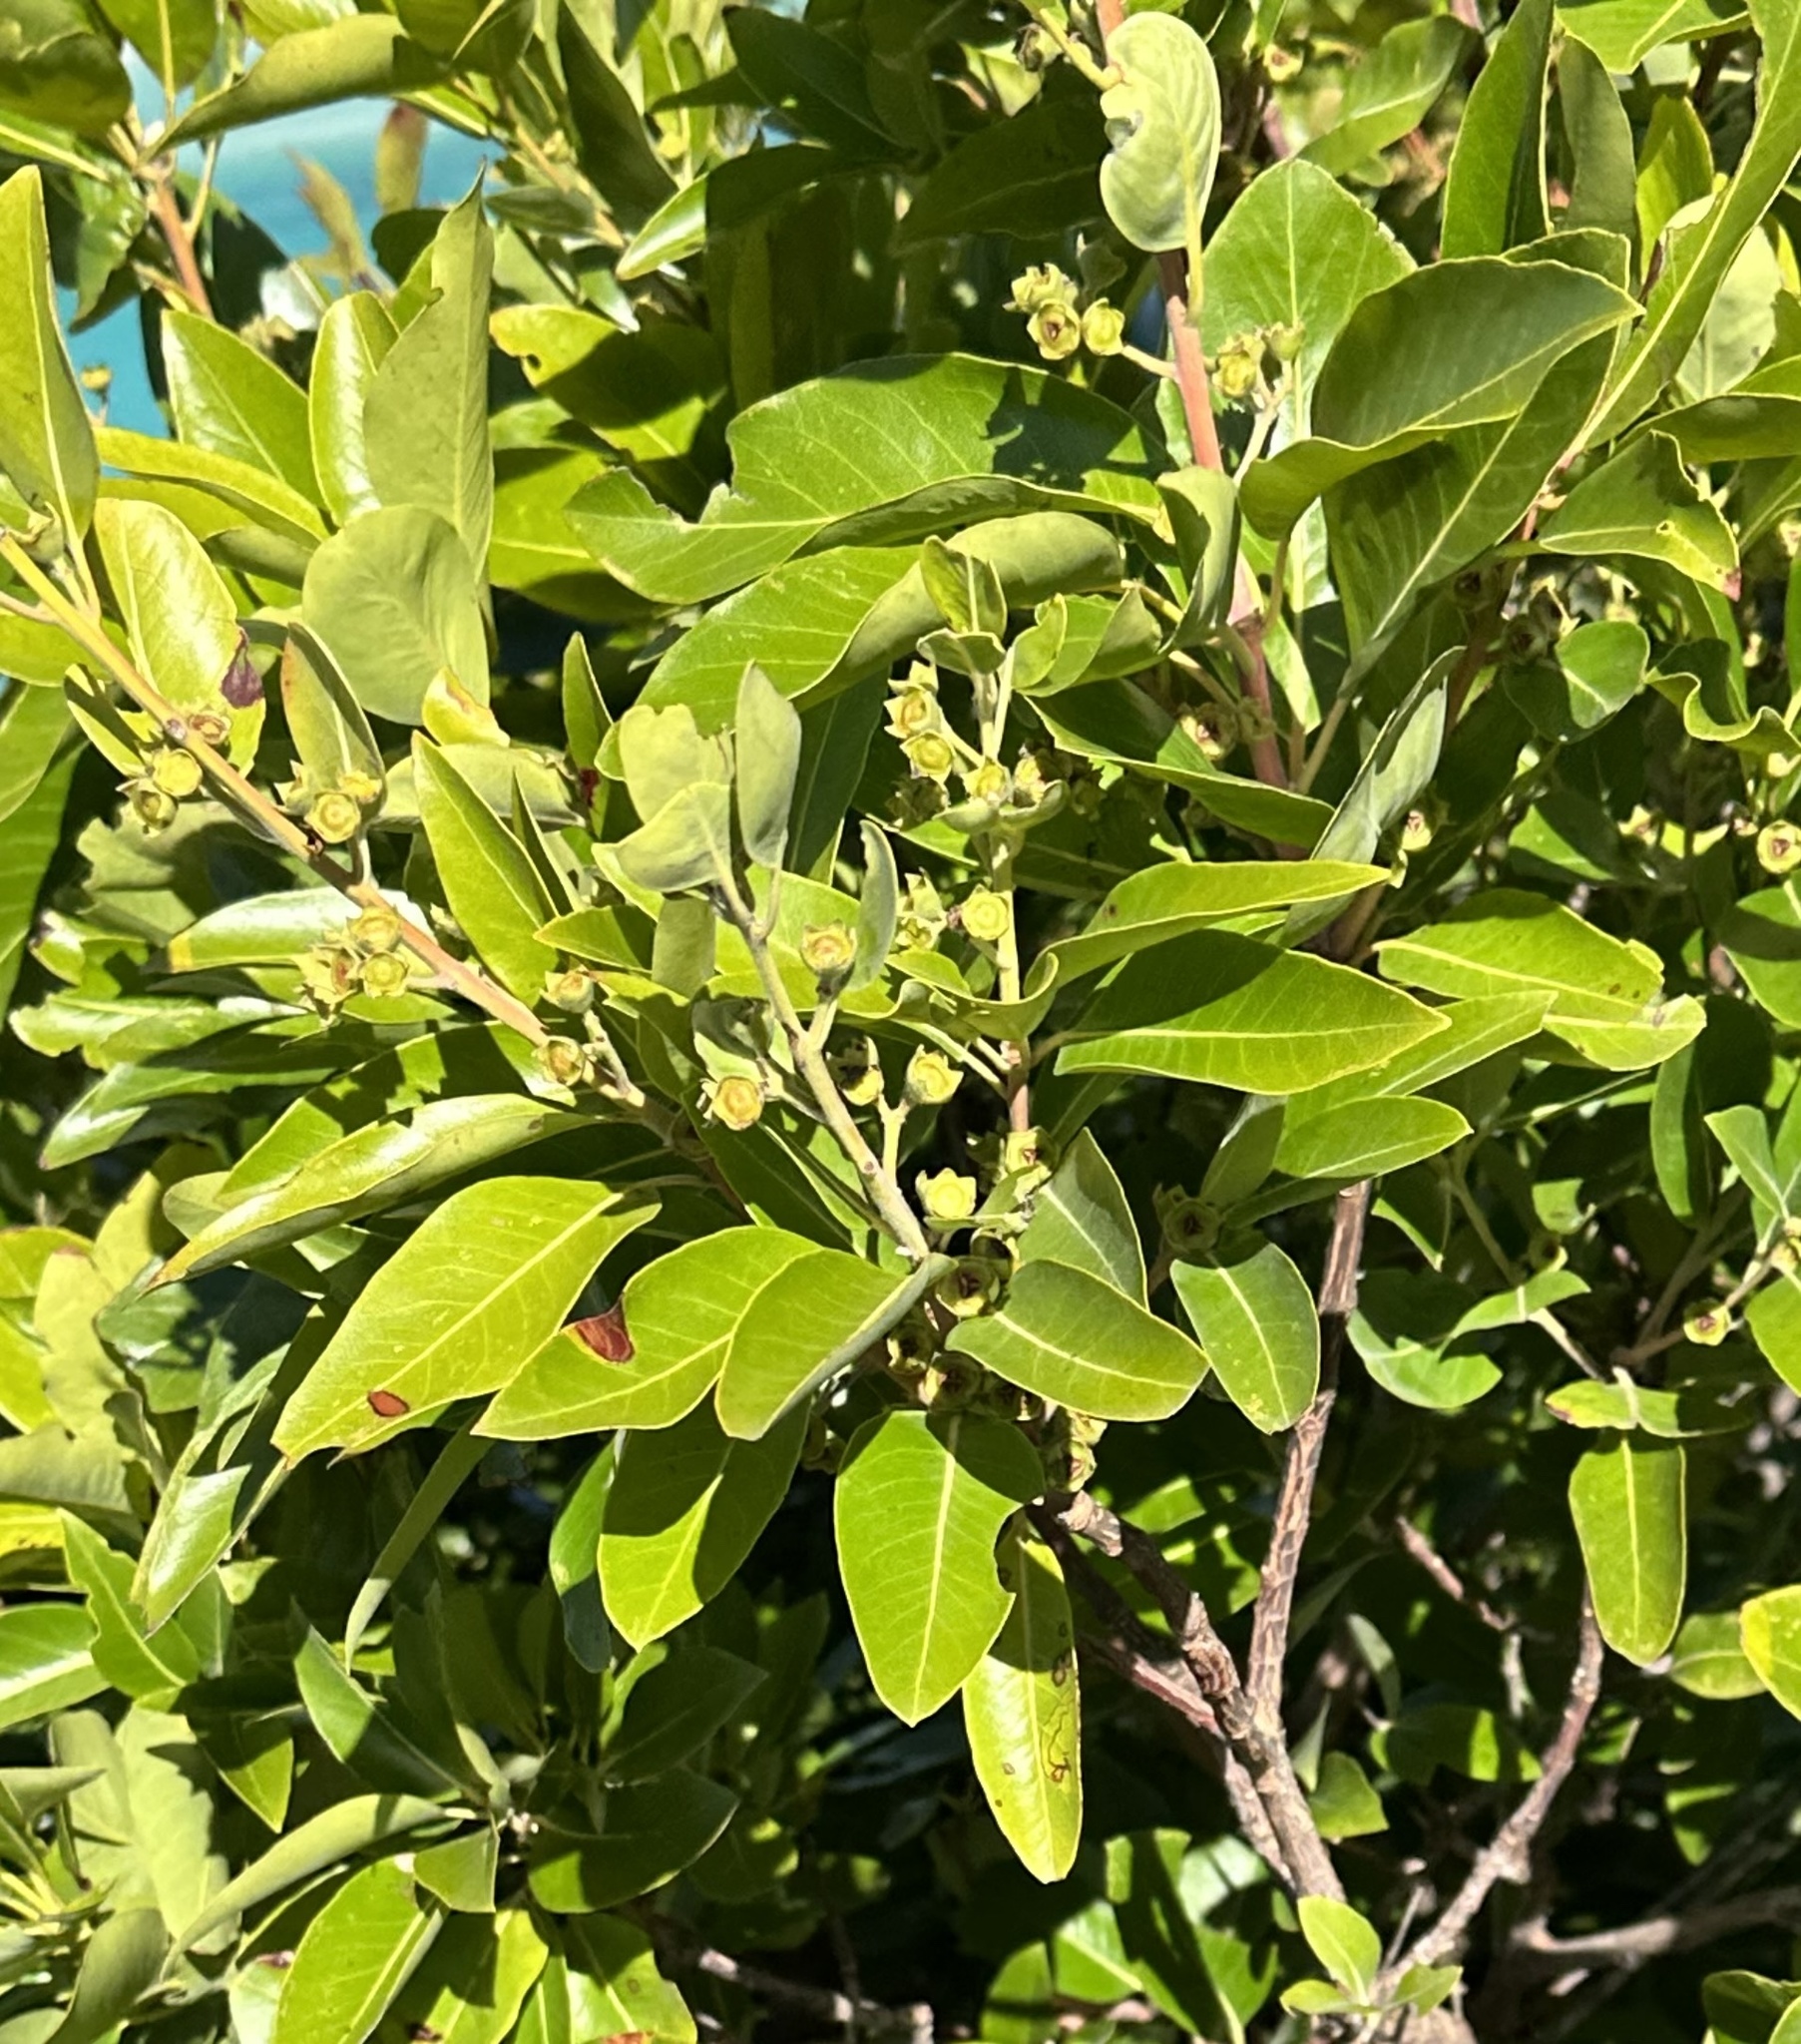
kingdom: Plantae
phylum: Tracheophyta
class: Magnoliopsida
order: Myrtales
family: Myrtaceae
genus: Lophostemon
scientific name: Lophostemon grandiflorus
